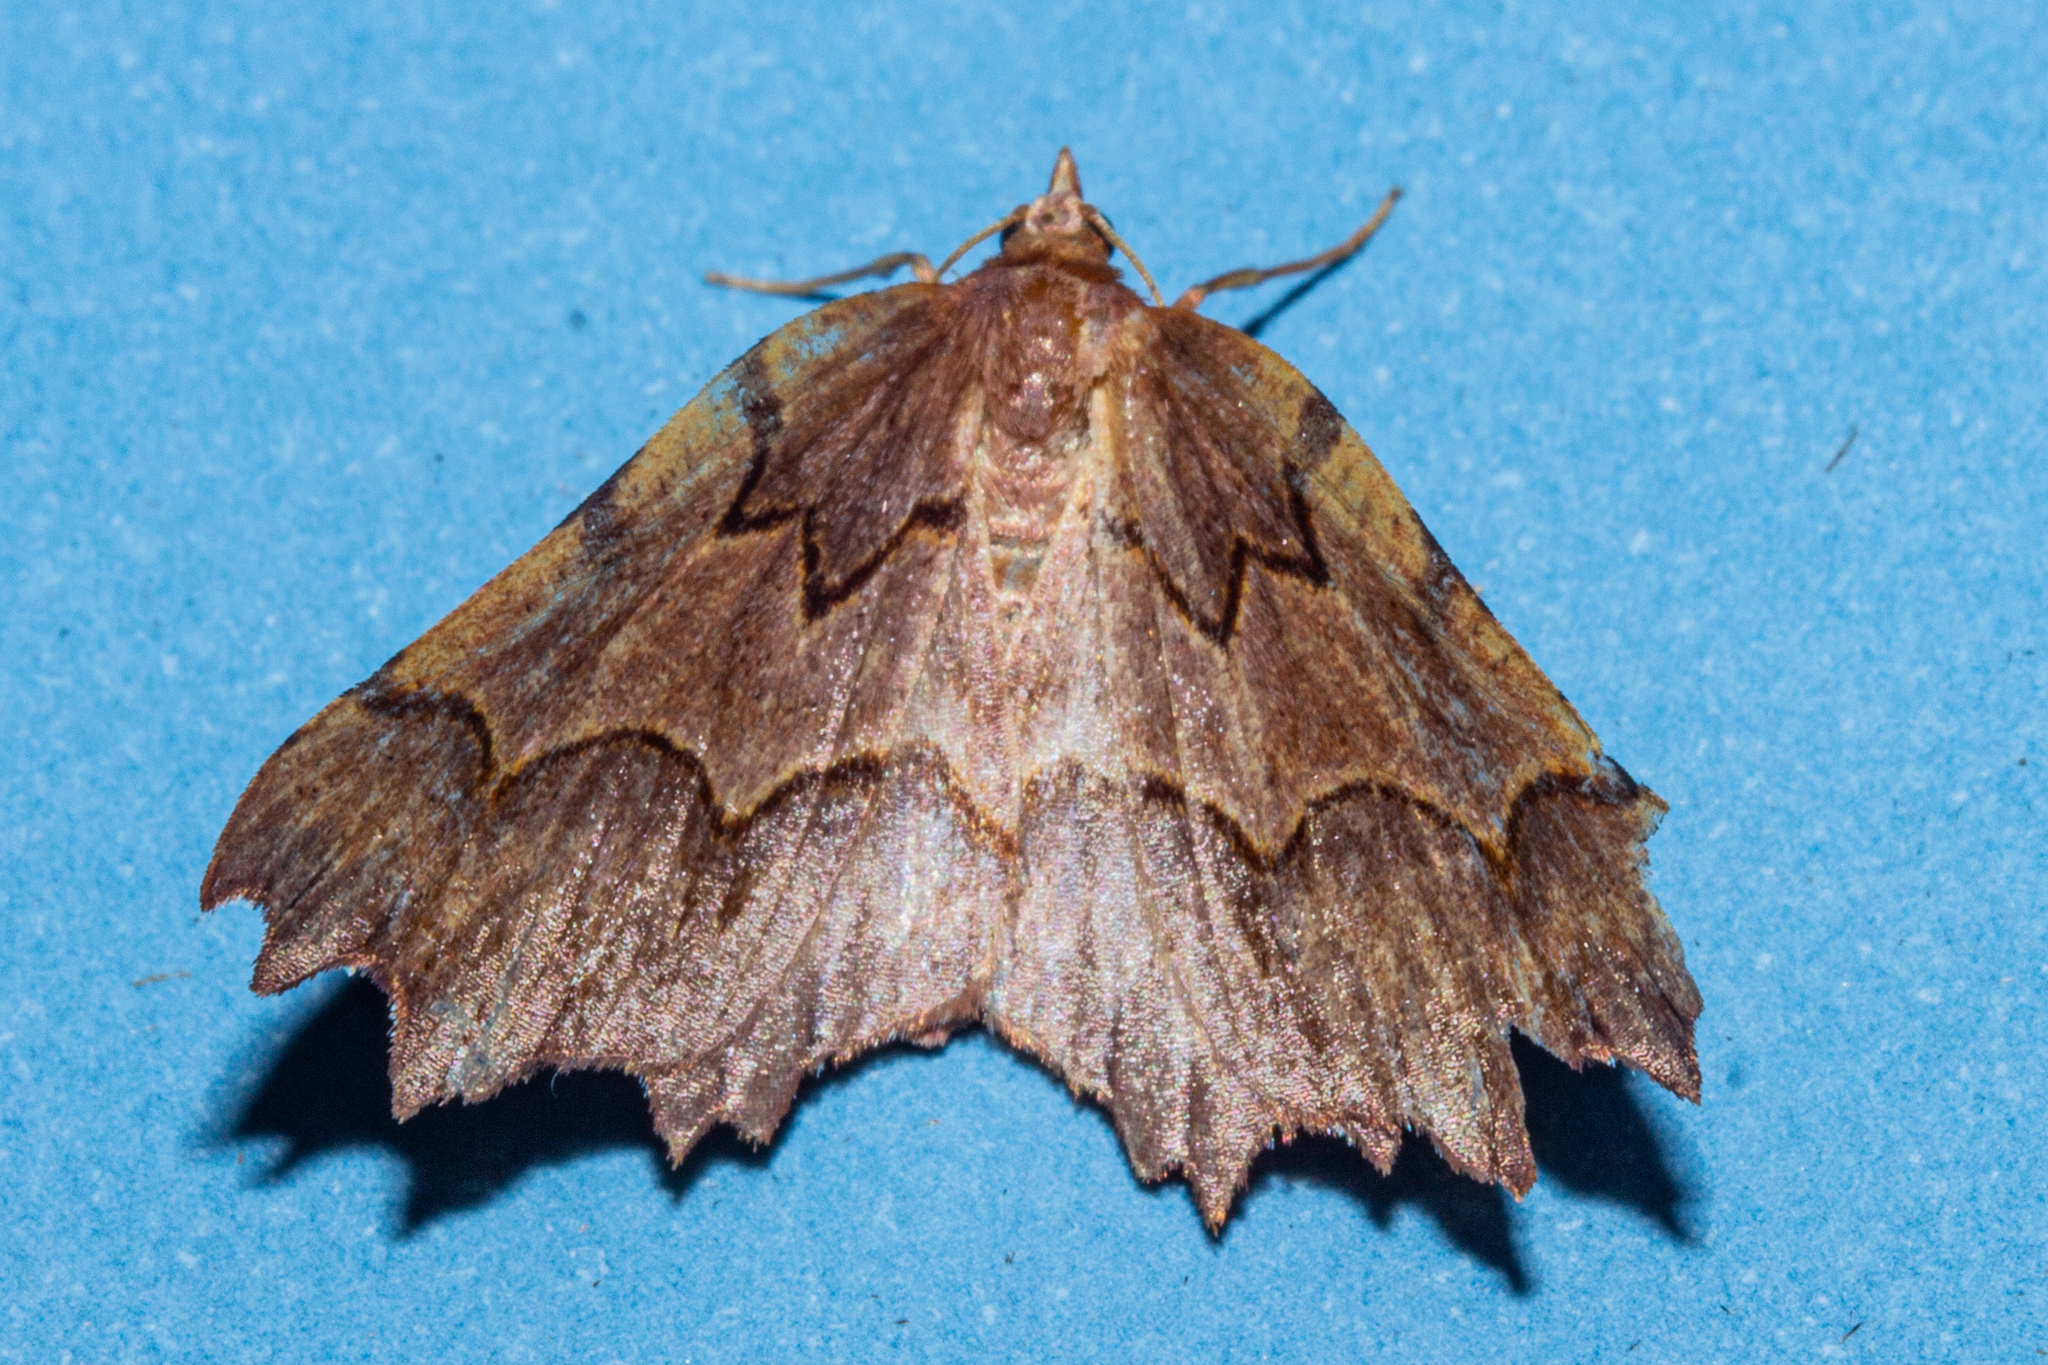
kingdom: Animalia
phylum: Arthropoda
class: Insecta
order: Lepidoptera
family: Geometridae
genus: Ischalis
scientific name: Ischalis fortinata
